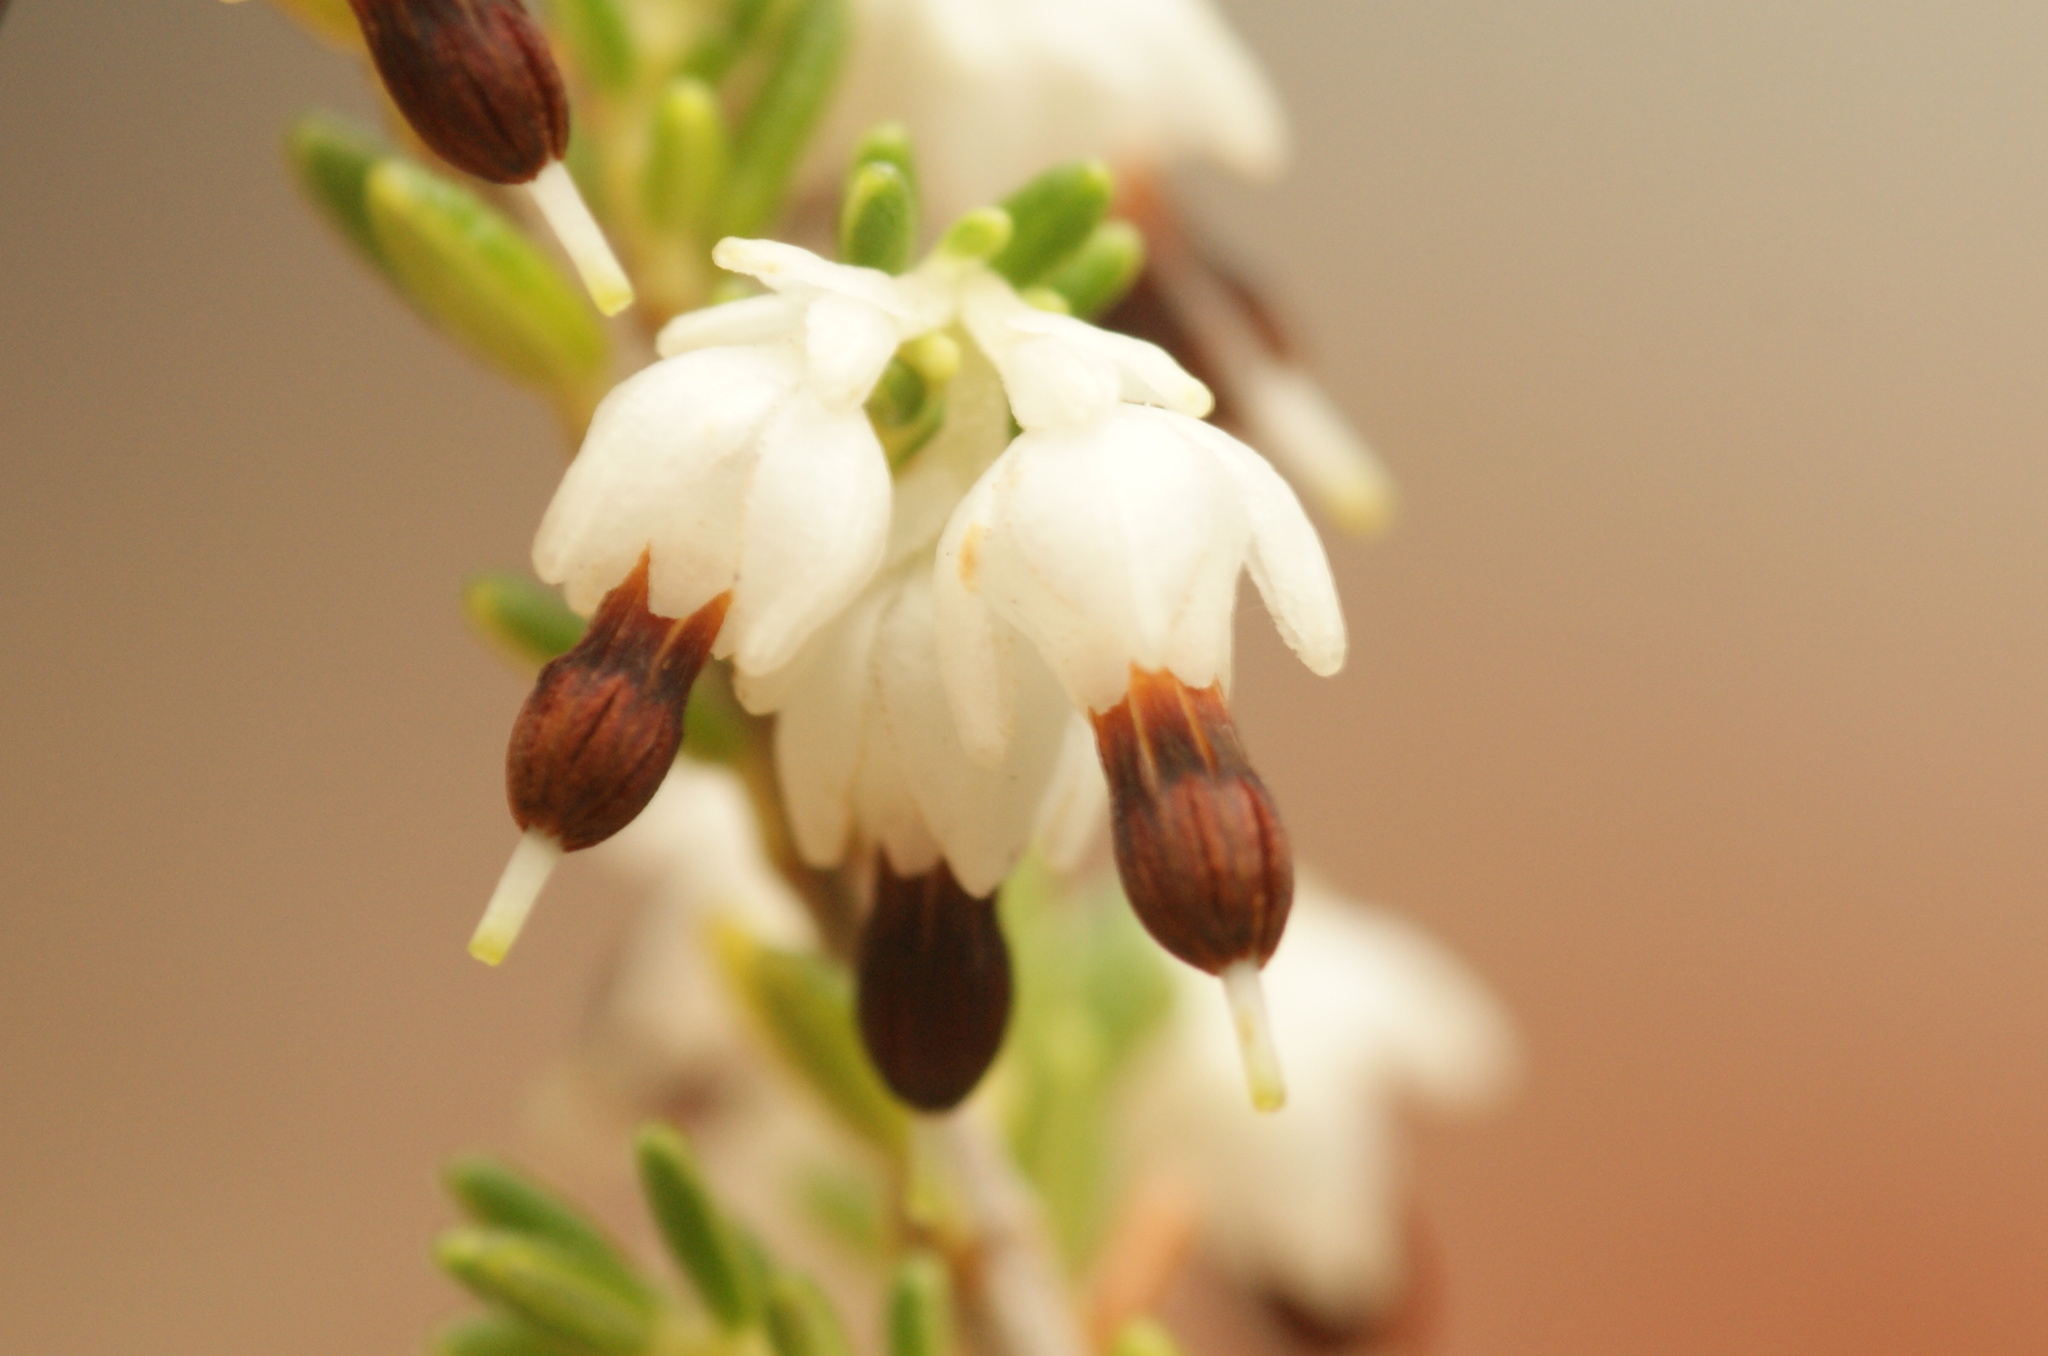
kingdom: Plantae
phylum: Tracheophyta
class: Magnoliopsida
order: Ericales
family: Ericaceae
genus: Erica
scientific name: Erica imbricata
